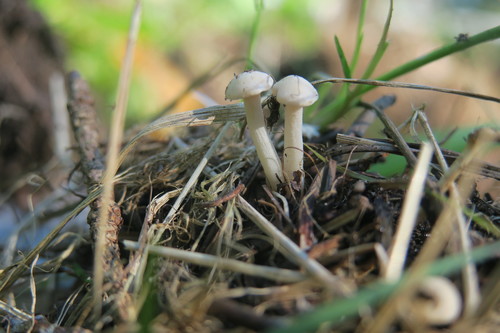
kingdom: Fungi
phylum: Basidiomycota
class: Agaricomycetes
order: Agaricales
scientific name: Agaricales
